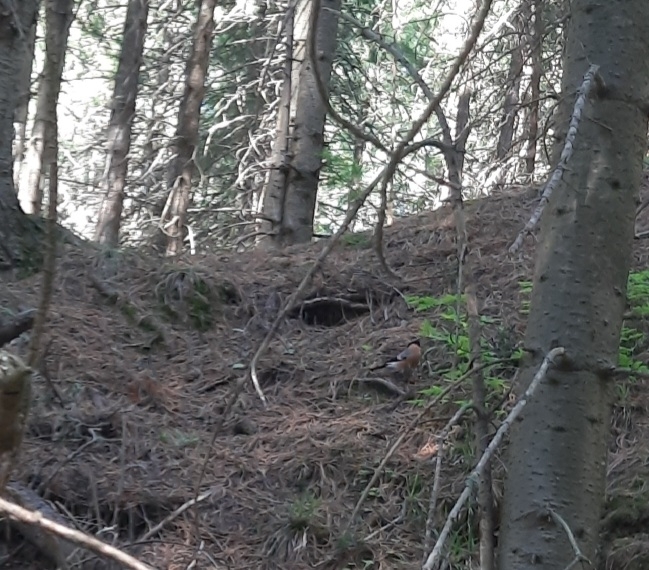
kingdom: Animalia
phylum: Chordata
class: Aves
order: Passeriformes
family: Fringillidae
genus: Pyrrhula
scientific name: Pyrrhula pyrrhula
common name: Eurasian bullfinch
